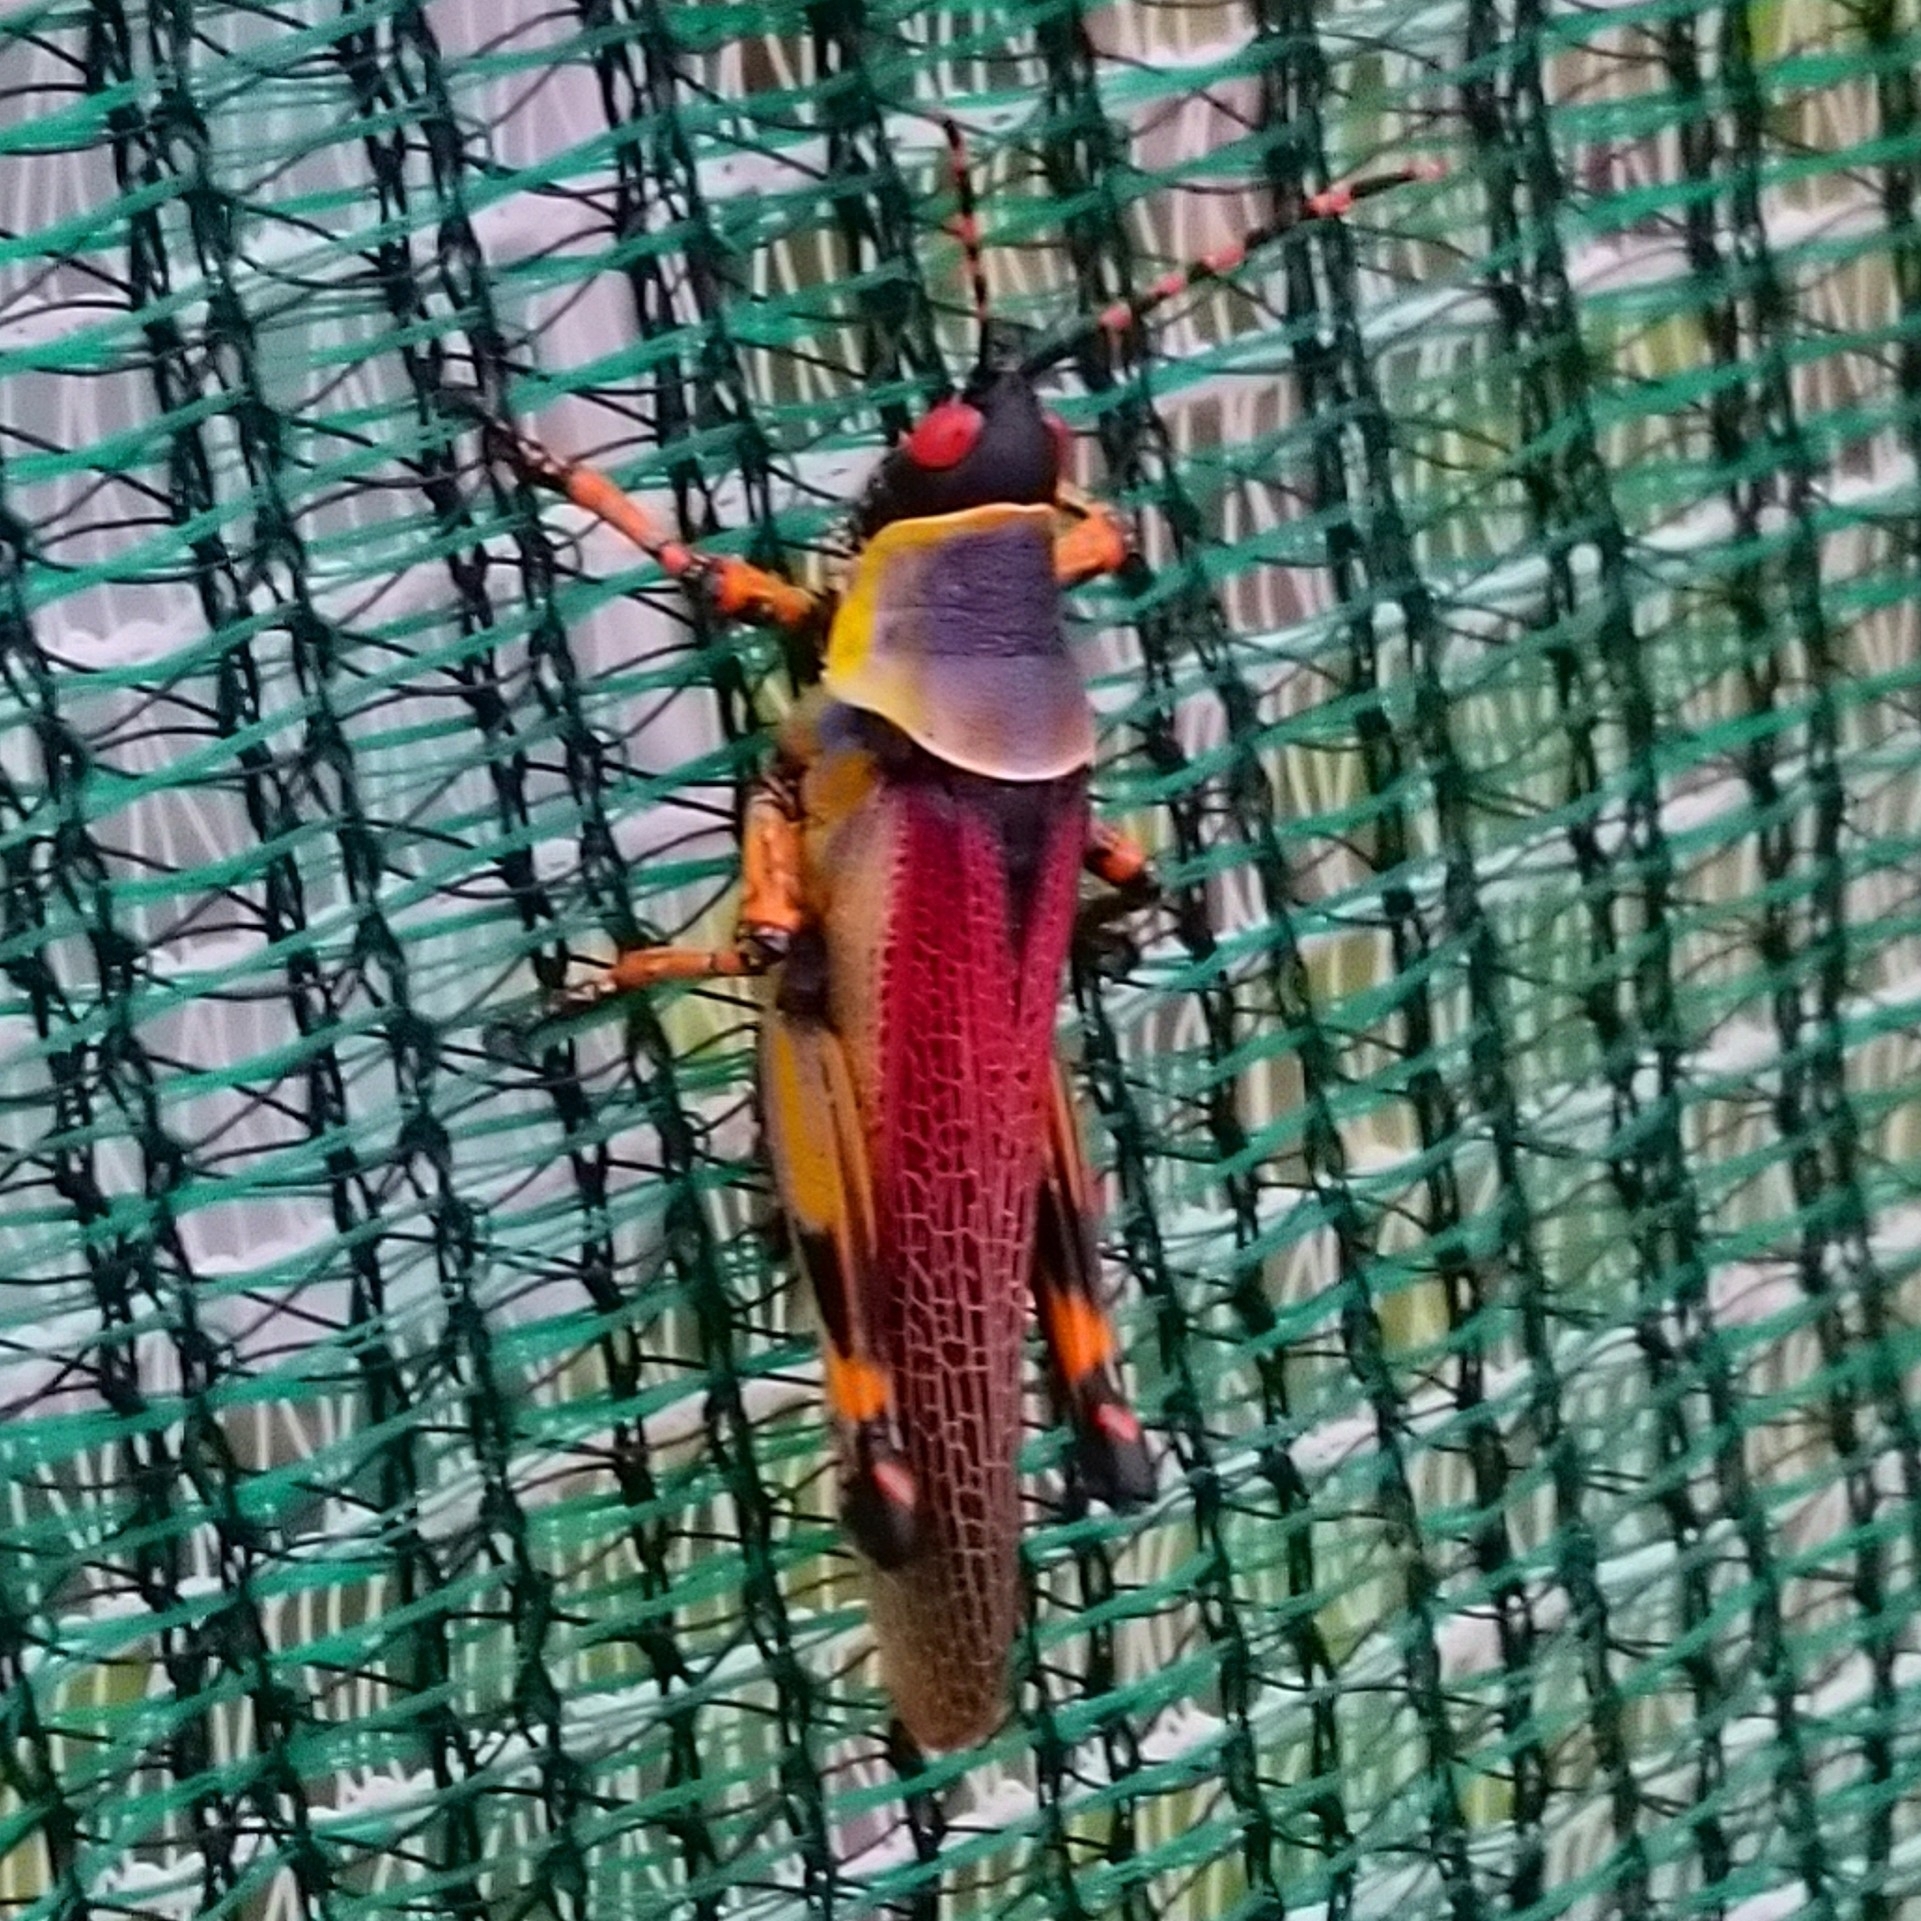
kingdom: Animalia
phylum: Arthropoda
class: Insecta
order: Orthoptera
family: Pyrgomorphidae
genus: Zonocerus
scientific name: Zonocerus elegans
